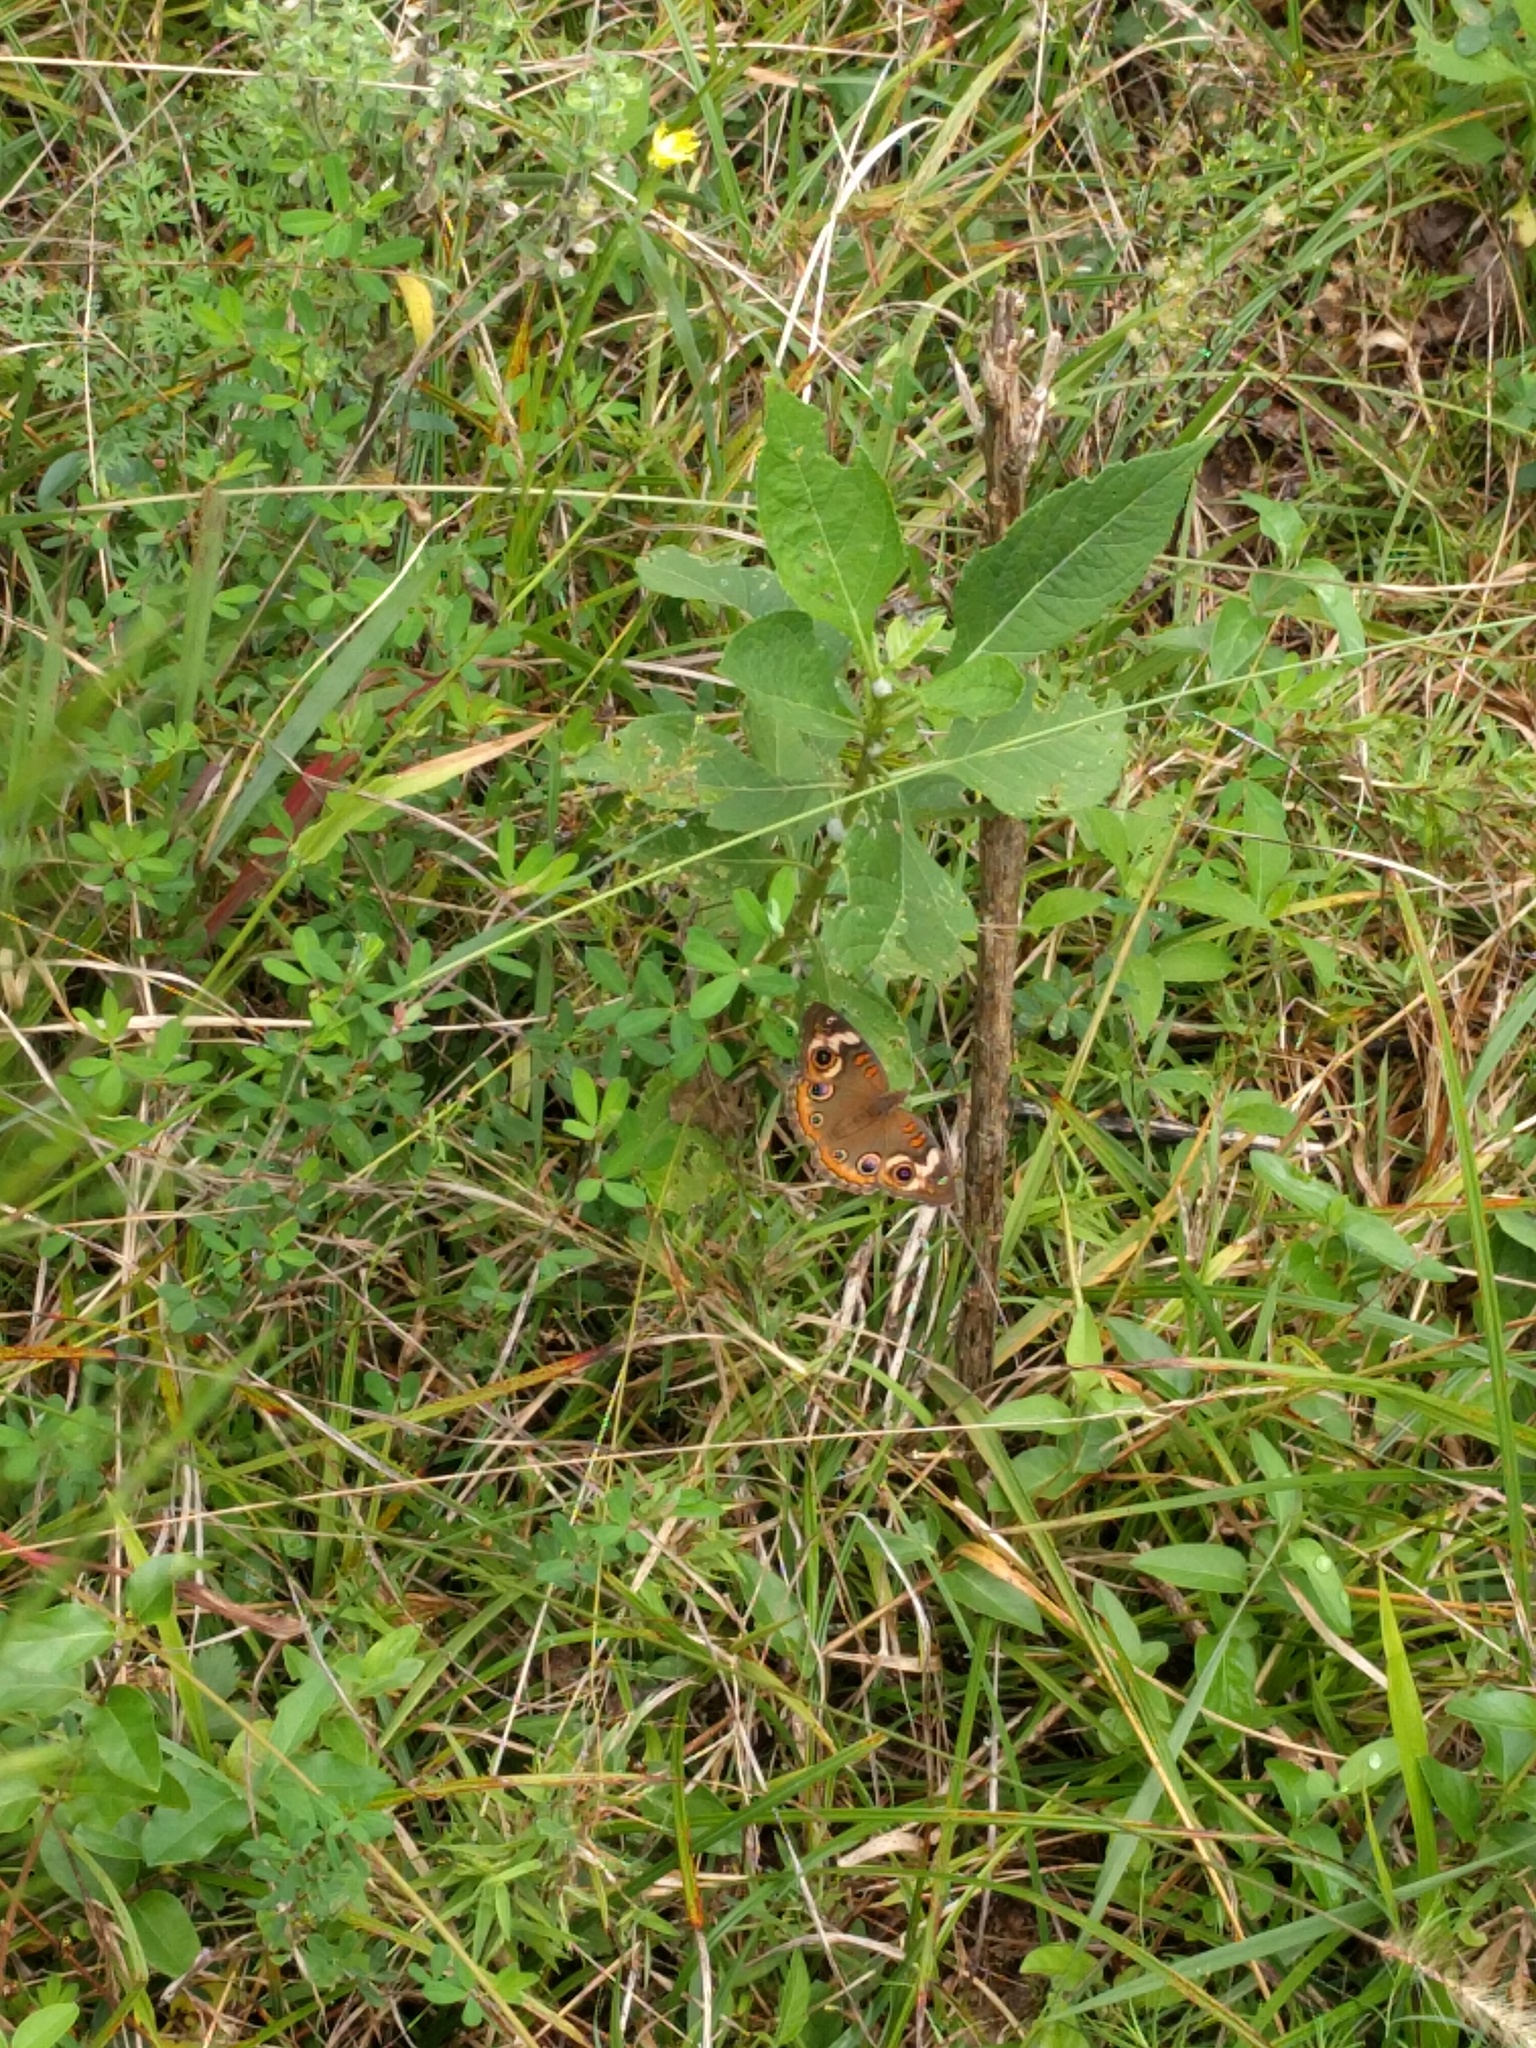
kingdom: Animalia
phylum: Arthropoda
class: Insecta
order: Lepidoptera
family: Nymphalidae
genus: Junonia
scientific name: Junonia coenia
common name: Common buckeye
